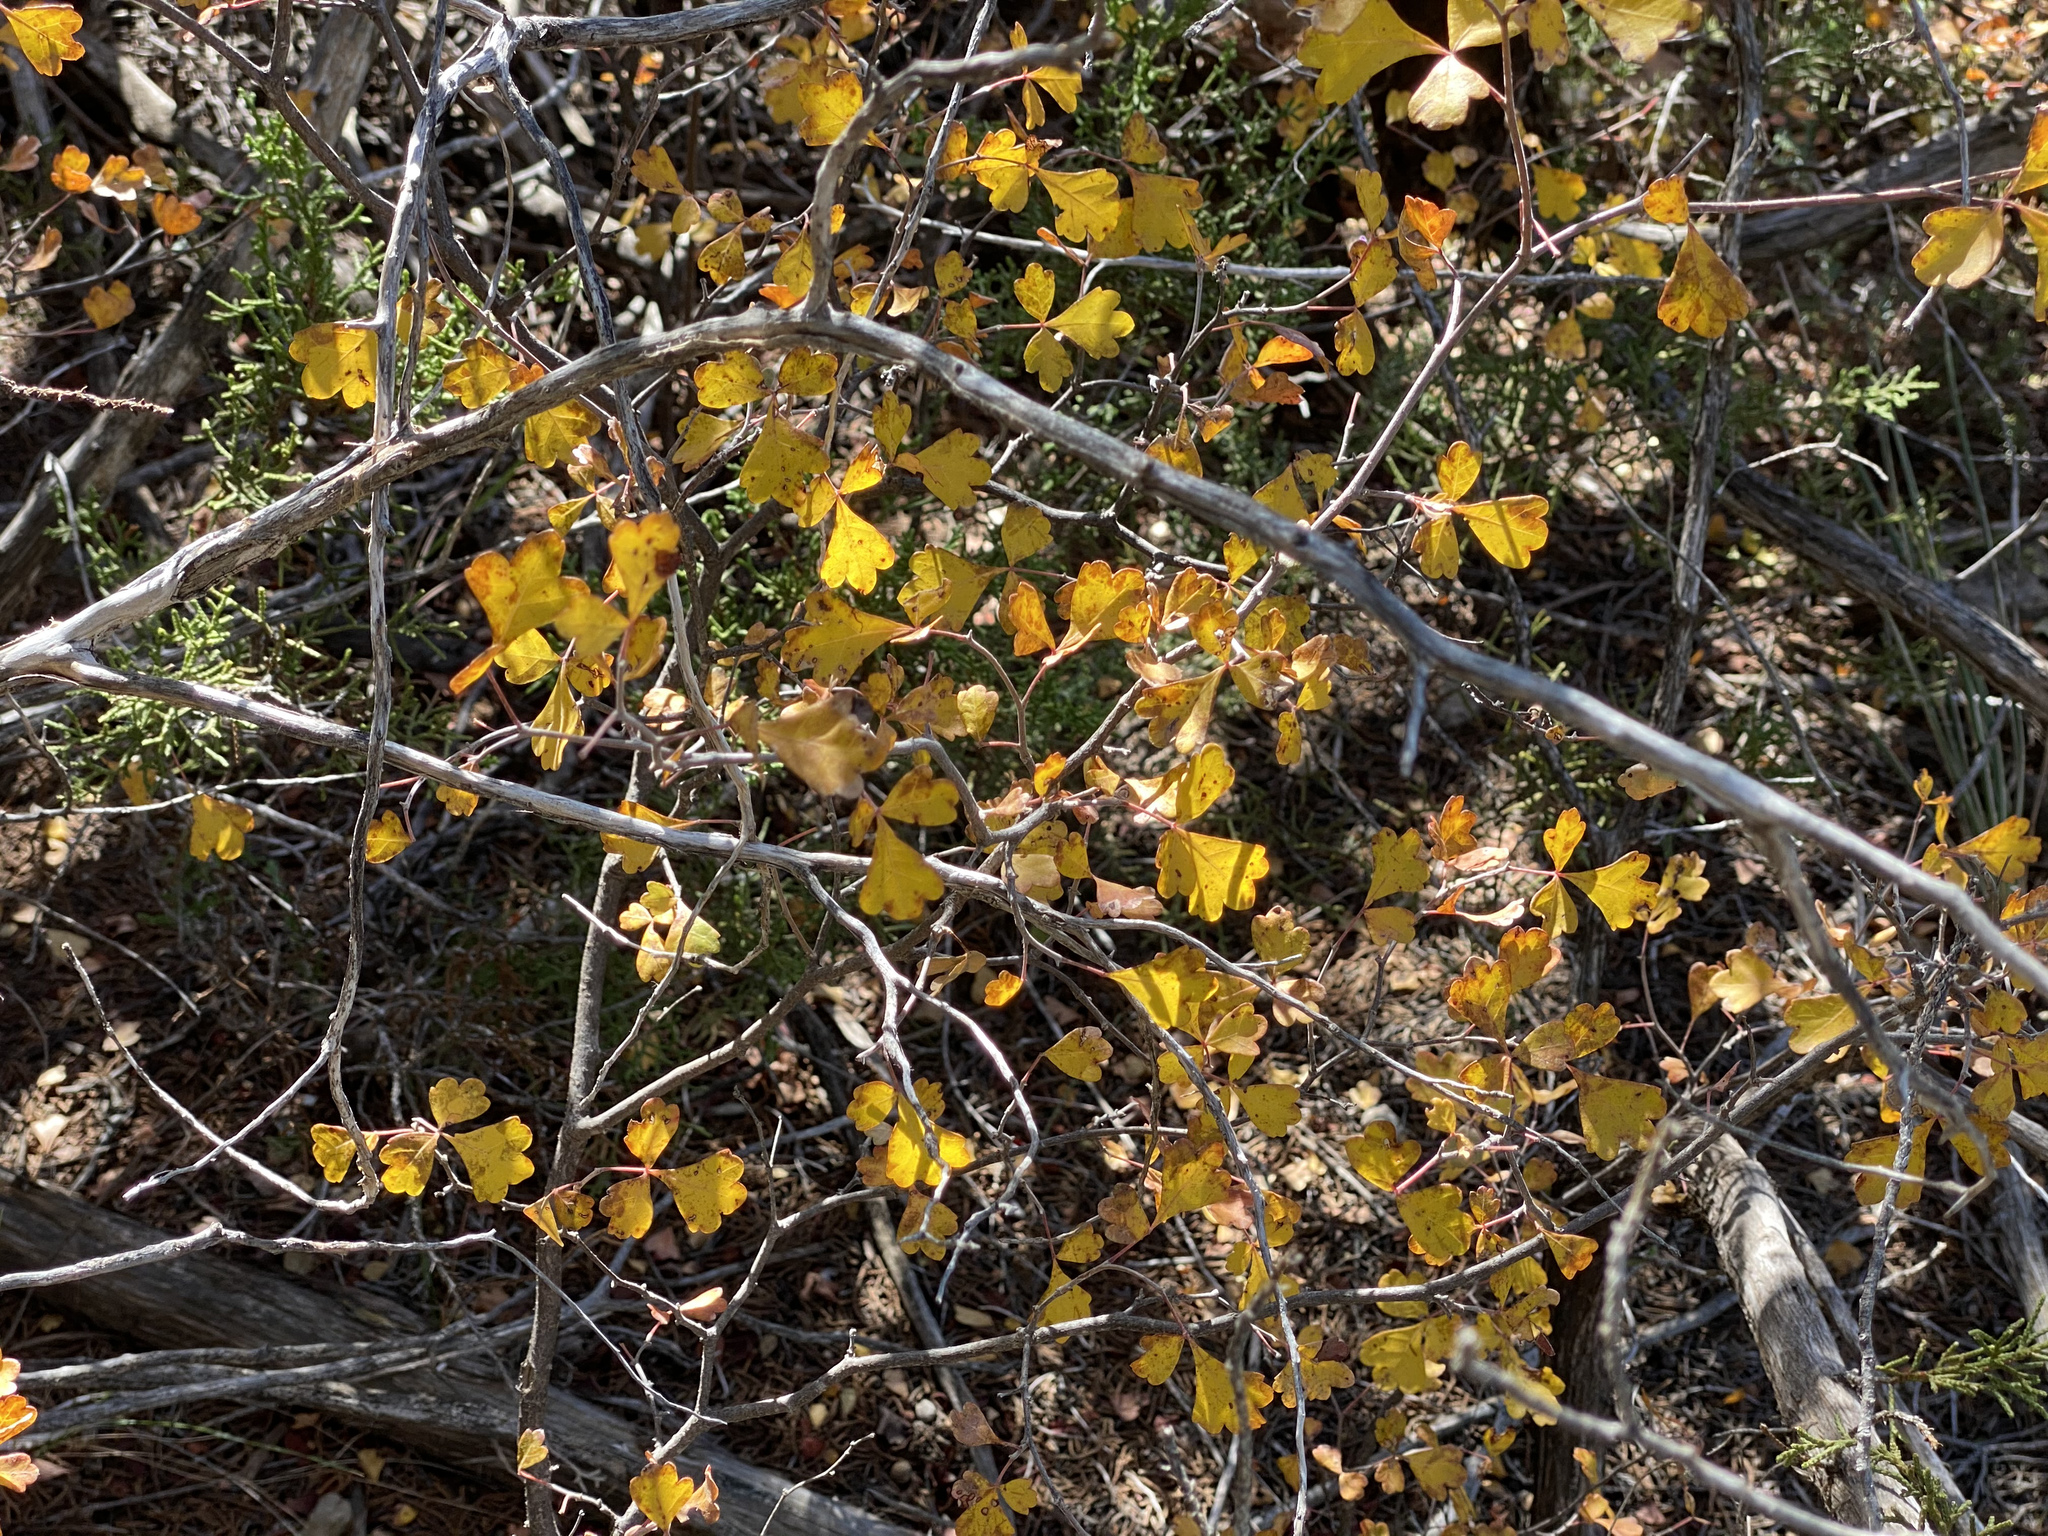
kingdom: Plantae
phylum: Tracheophyta
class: Magnoliopsida
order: Sapindales
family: Anacardiaceae
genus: Rhus
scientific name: Rhus aromatica
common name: Aromatic sumac
